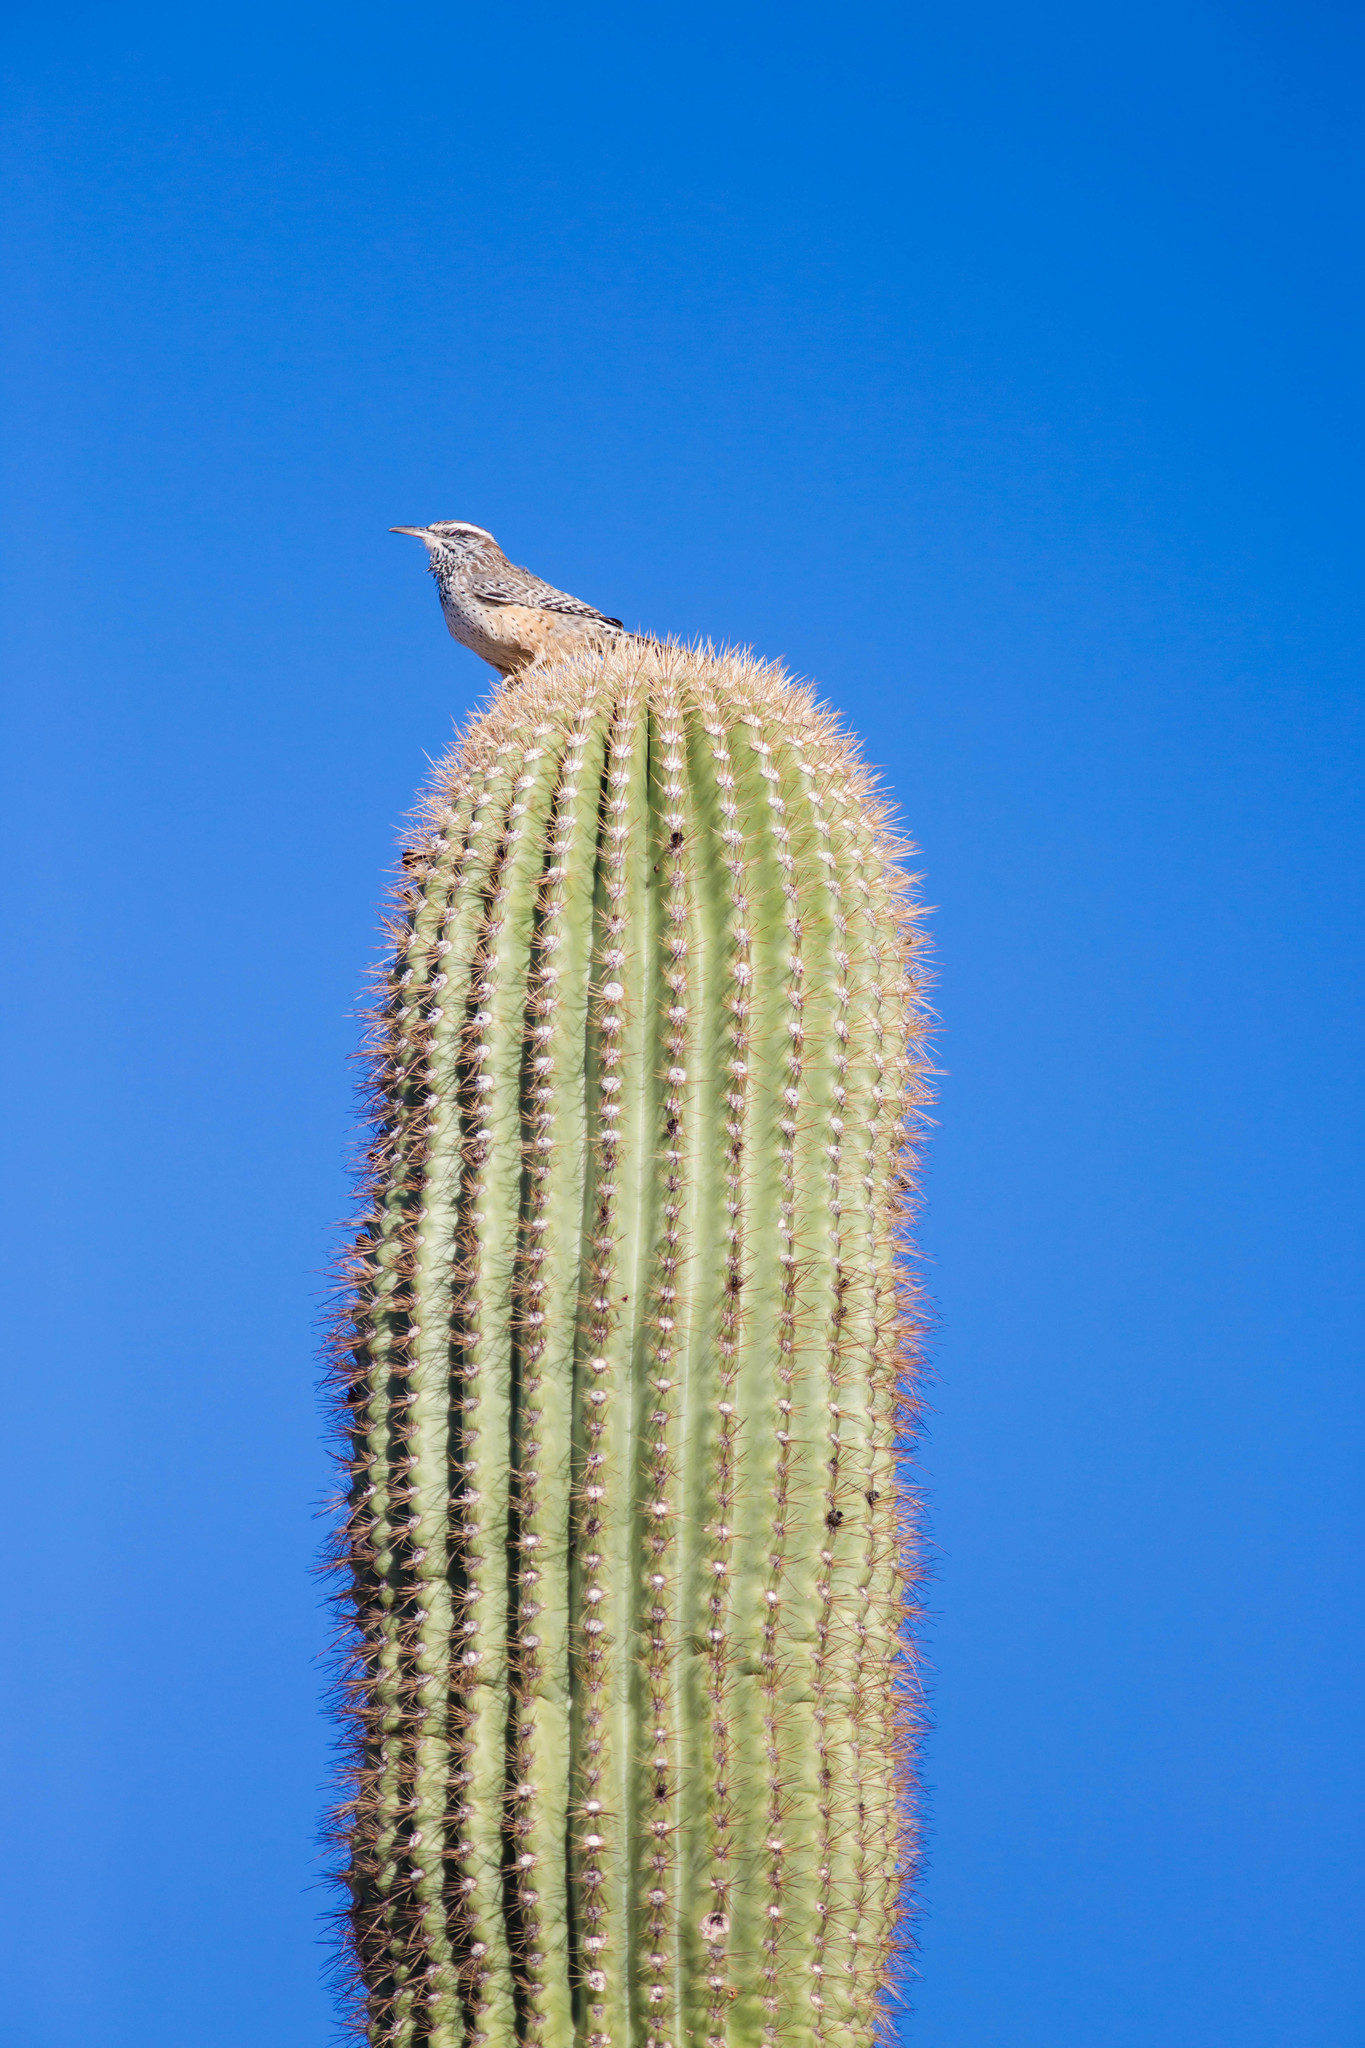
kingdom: Animalia
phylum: Chordata
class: Aves
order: Passeriformes
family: Troglodytidae
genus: Campylorhynchus
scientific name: Campylorhynchus brunneicapillus
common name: Cactus wren
